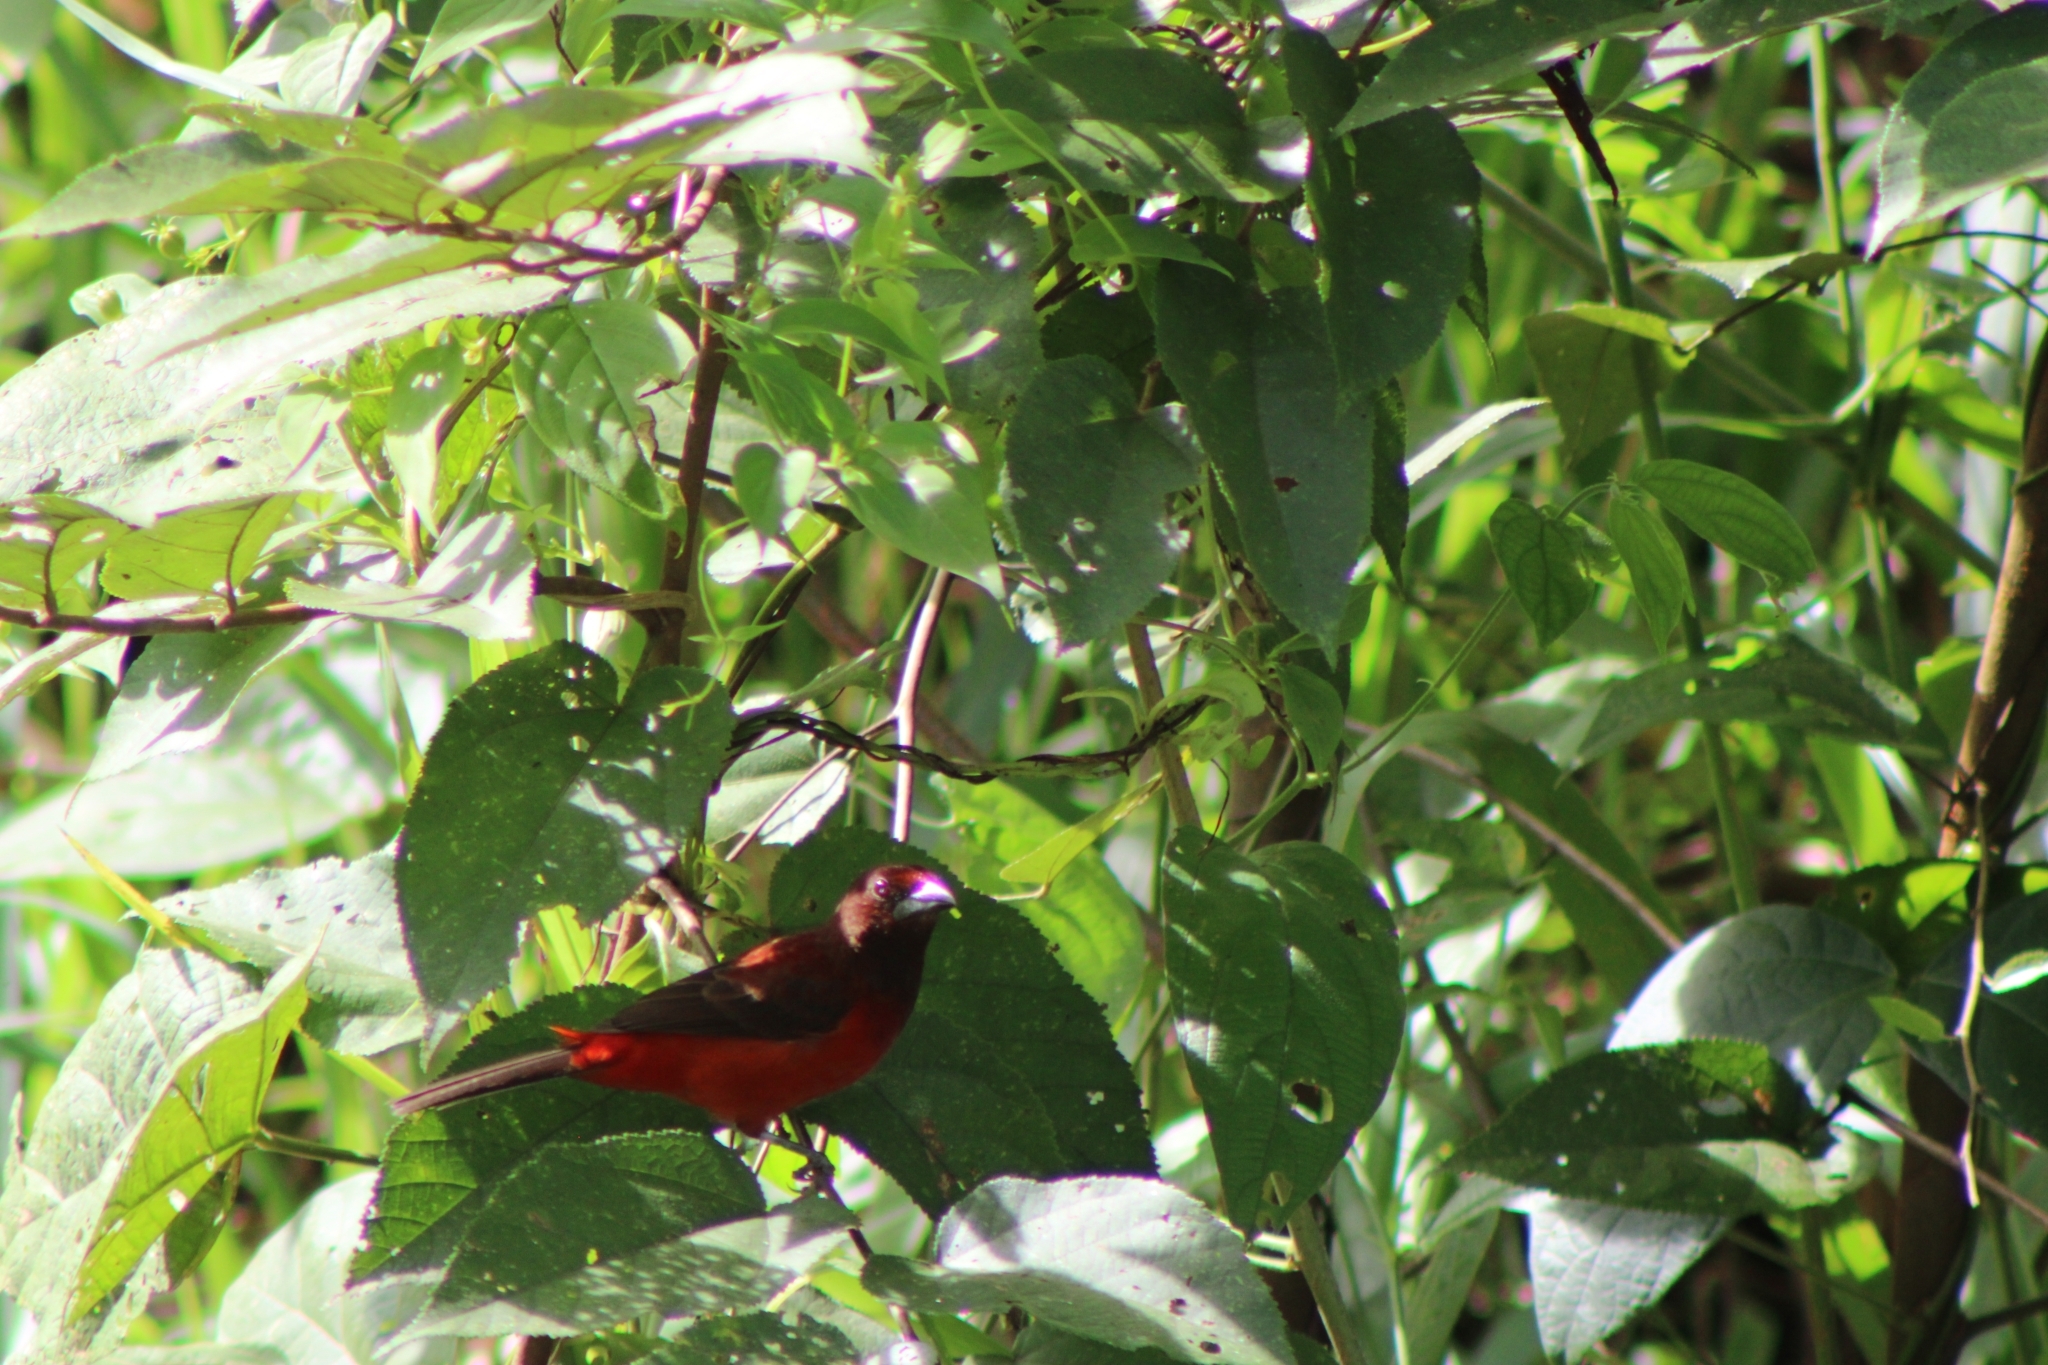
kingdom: Animalia
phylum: Chordata
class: Aves
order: Passeriformes
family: Thraupidae
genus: Ramphocelus
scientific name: Ramphocelus dimidiatus
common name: Crimson-backed tanager
